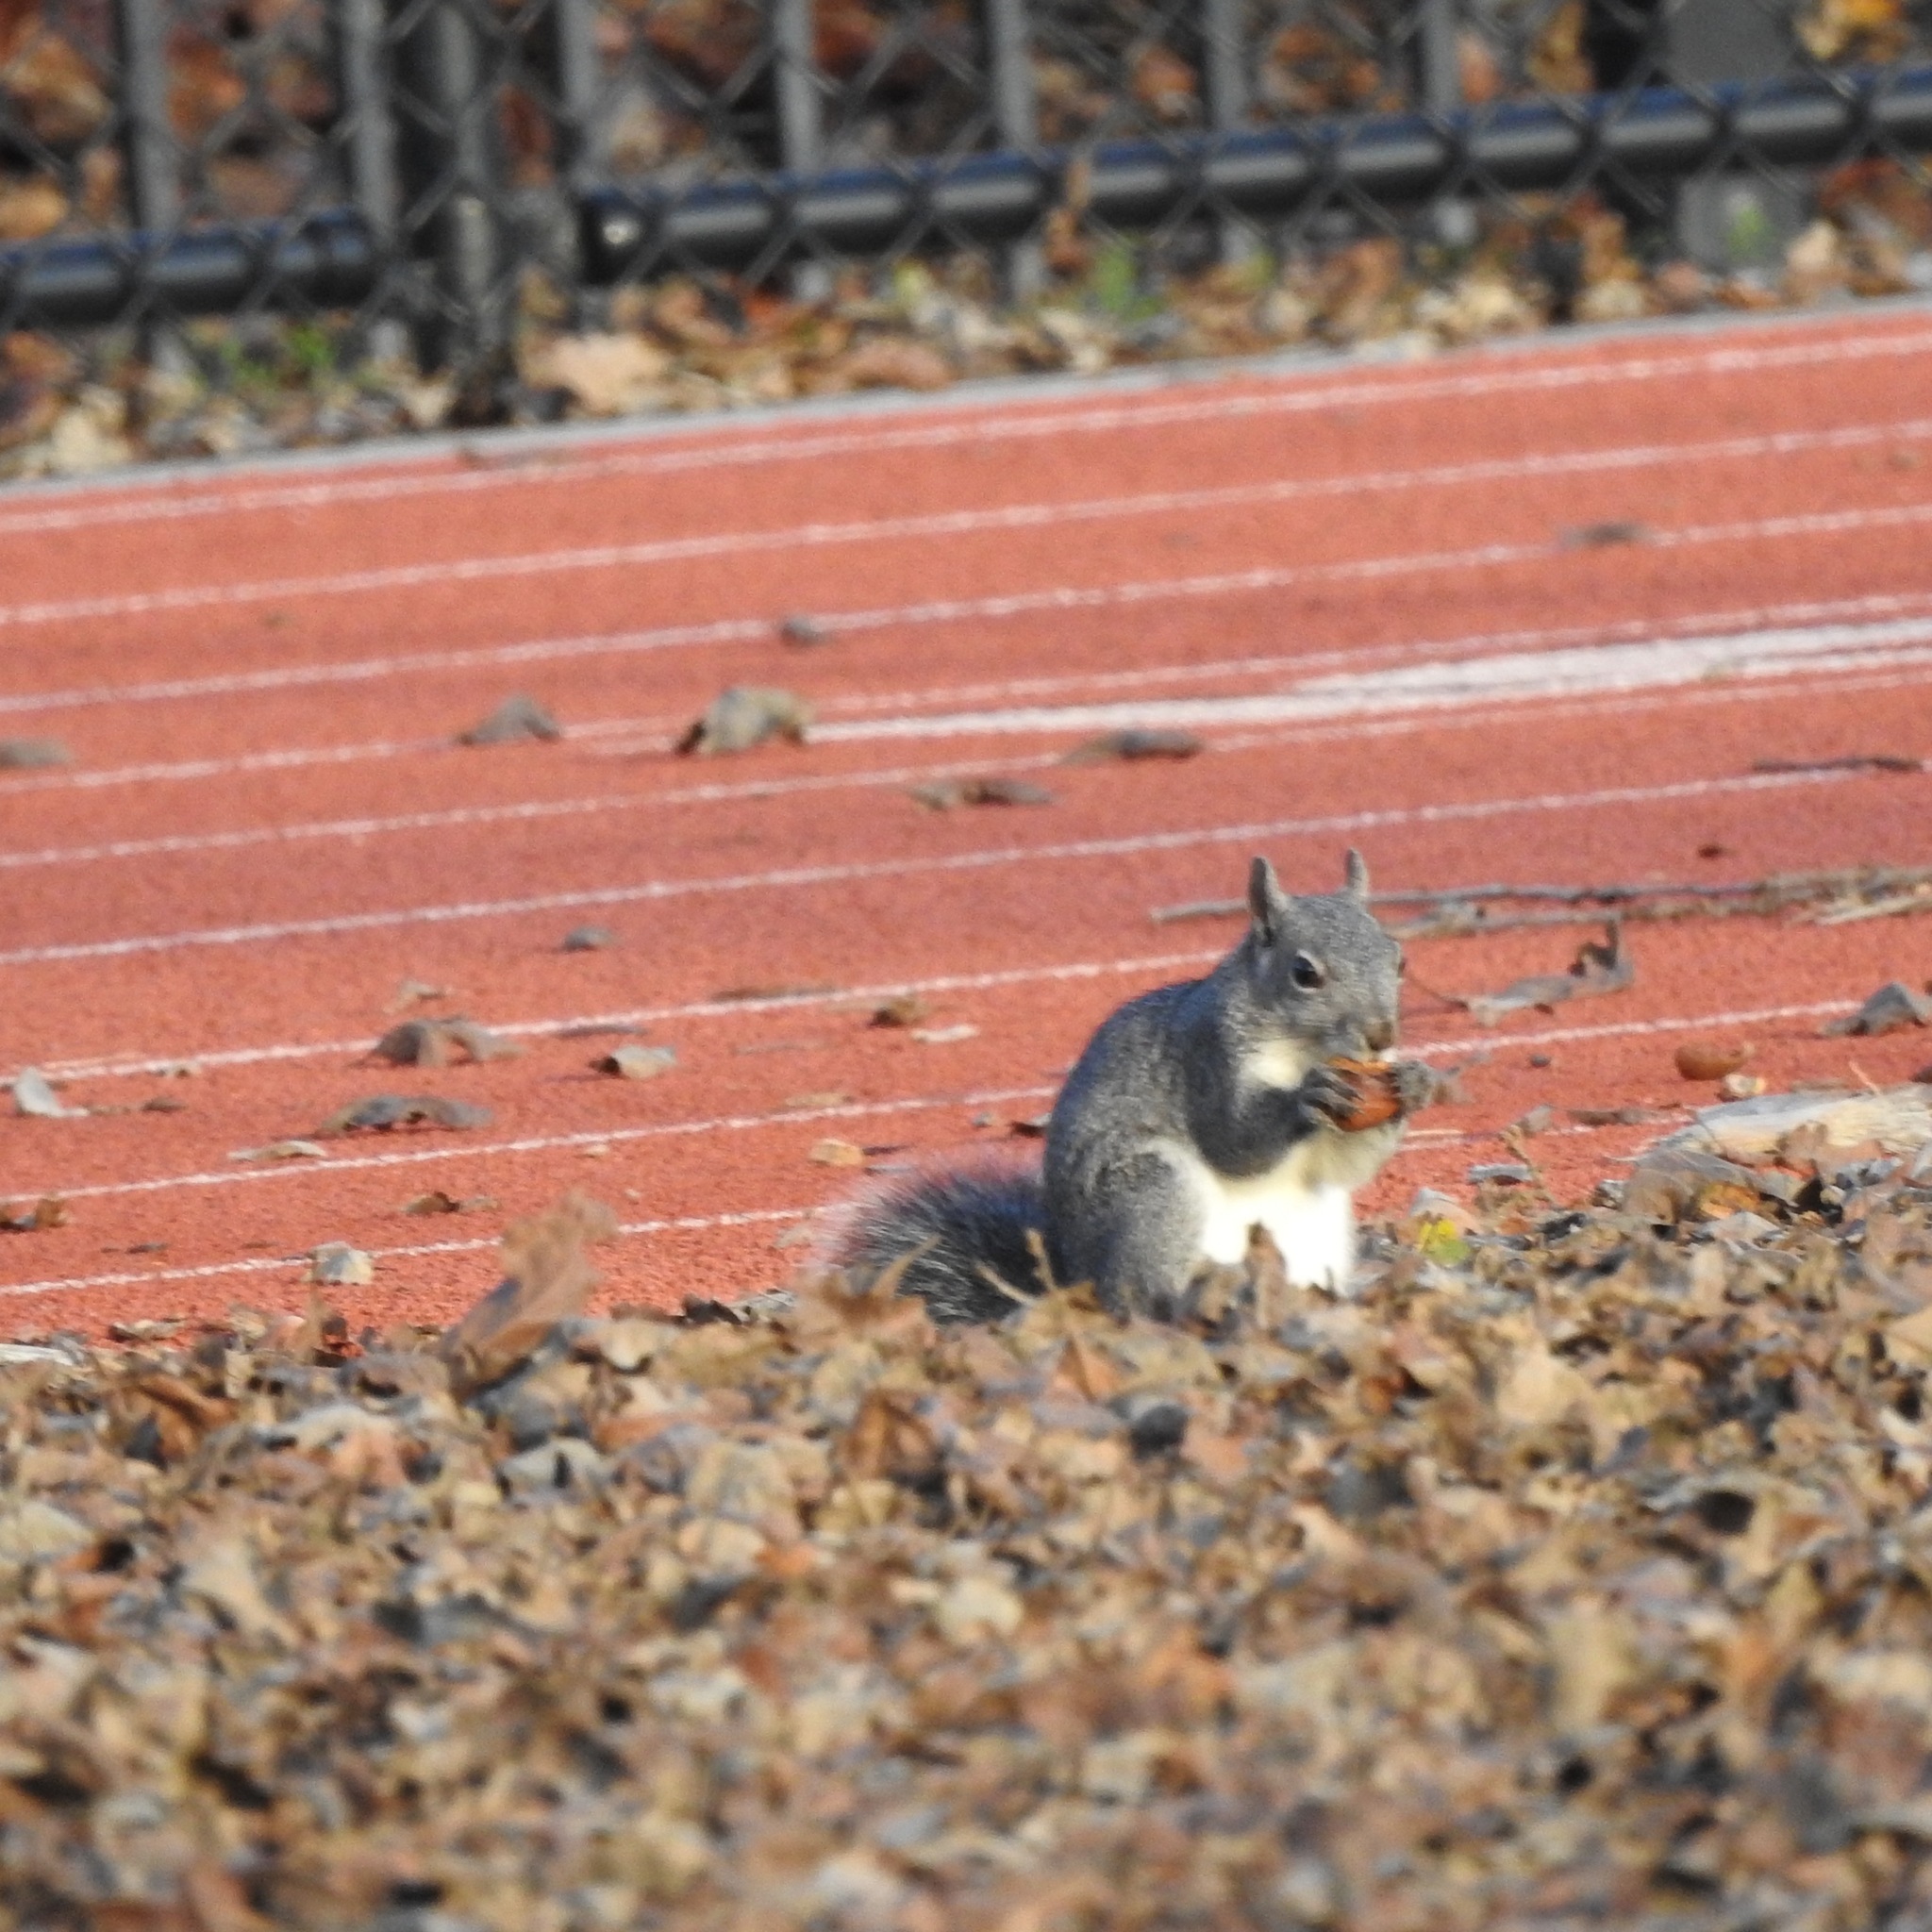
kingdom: Animalia
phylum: Chordata
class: Mammalia
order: Rodentia
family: Sciuridae
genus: Sciurus
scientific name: Sciurus griseus
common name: Western gray squirrel
